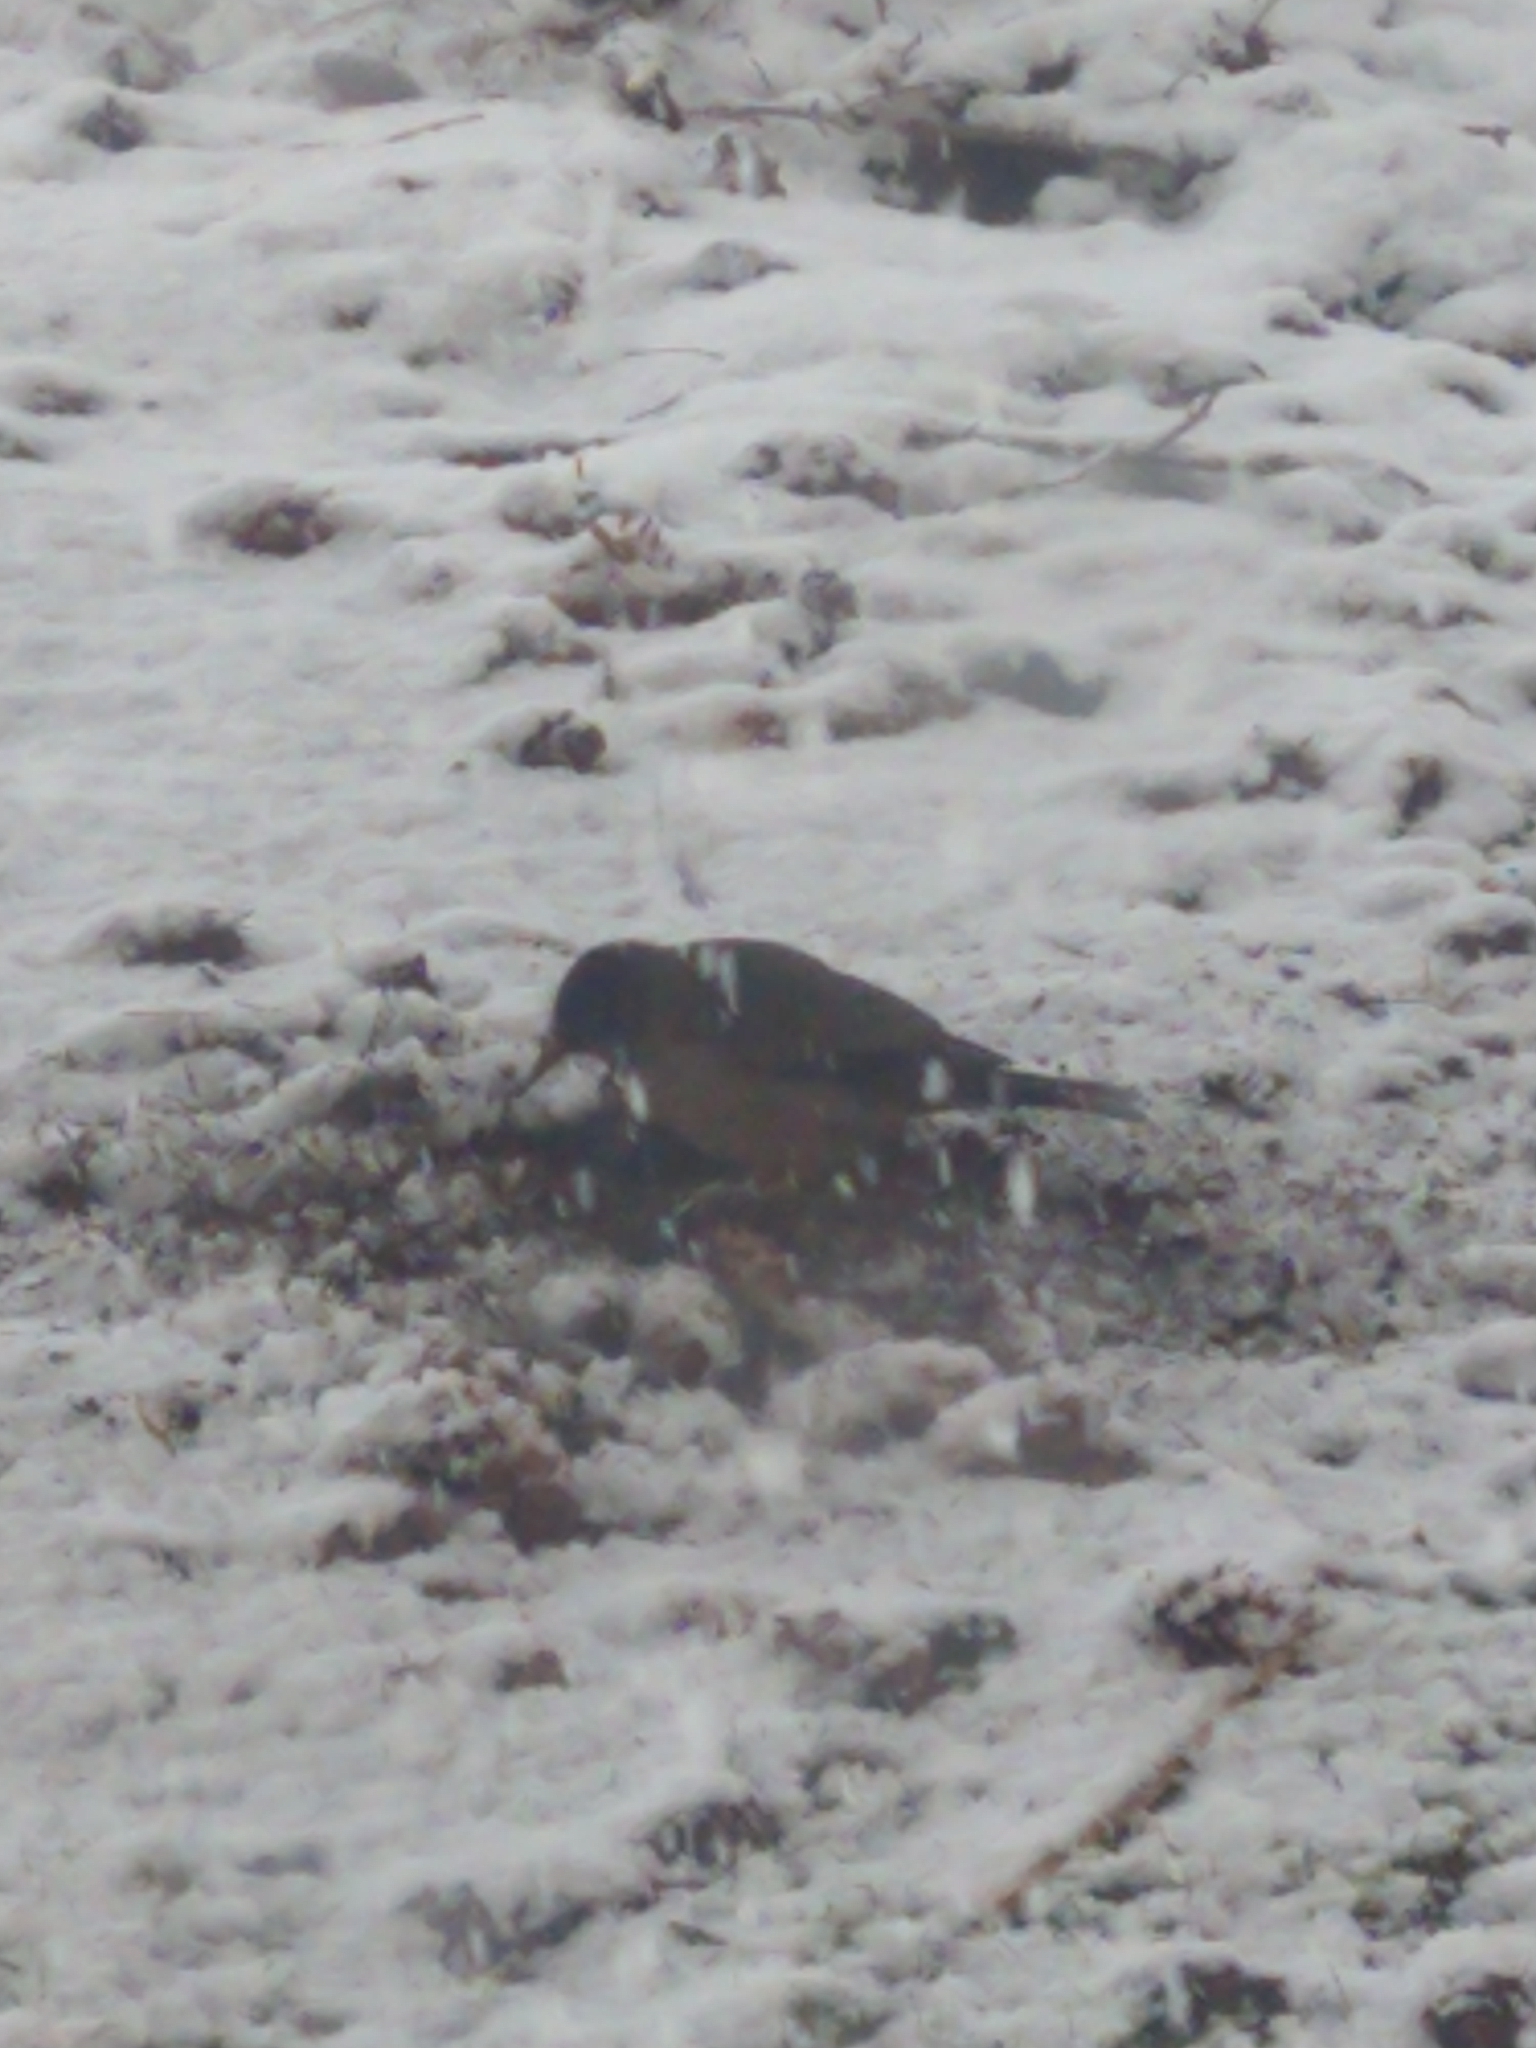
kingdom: Animalia
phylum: Chordata
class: Aves
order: Passeriformes
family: Turdidae
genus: Turdus
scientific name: Turdus falcklandii
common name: Austral thrush
